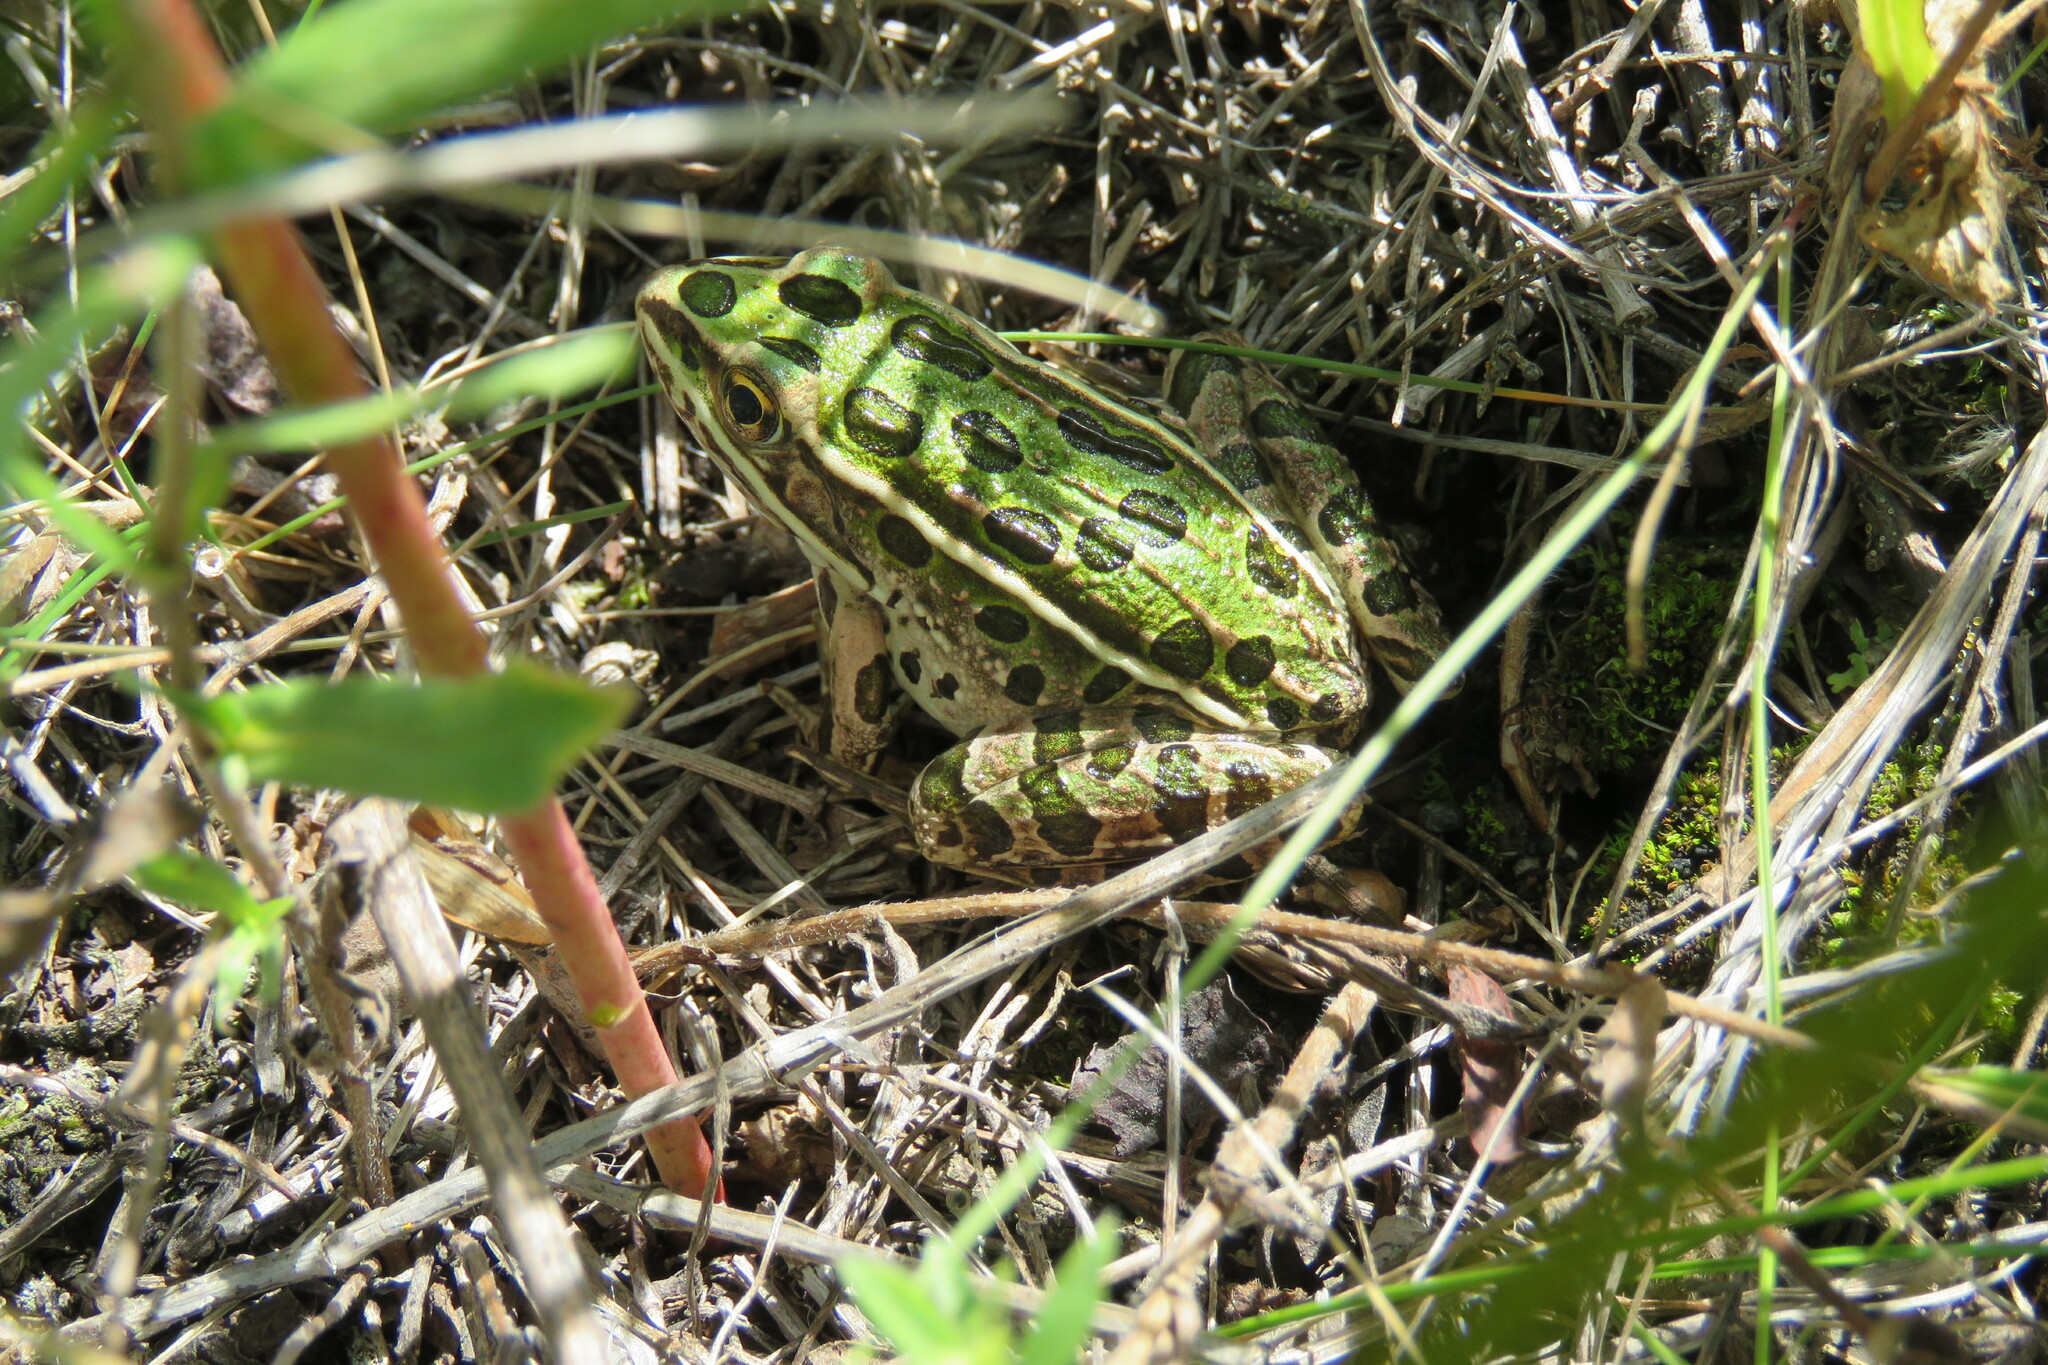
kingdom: Animalia
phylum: Chordata
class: Amphibia
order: Anura
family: Ranidae
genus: Lithobates
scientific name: Lithobates pipiens
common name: Northern leopard frog
